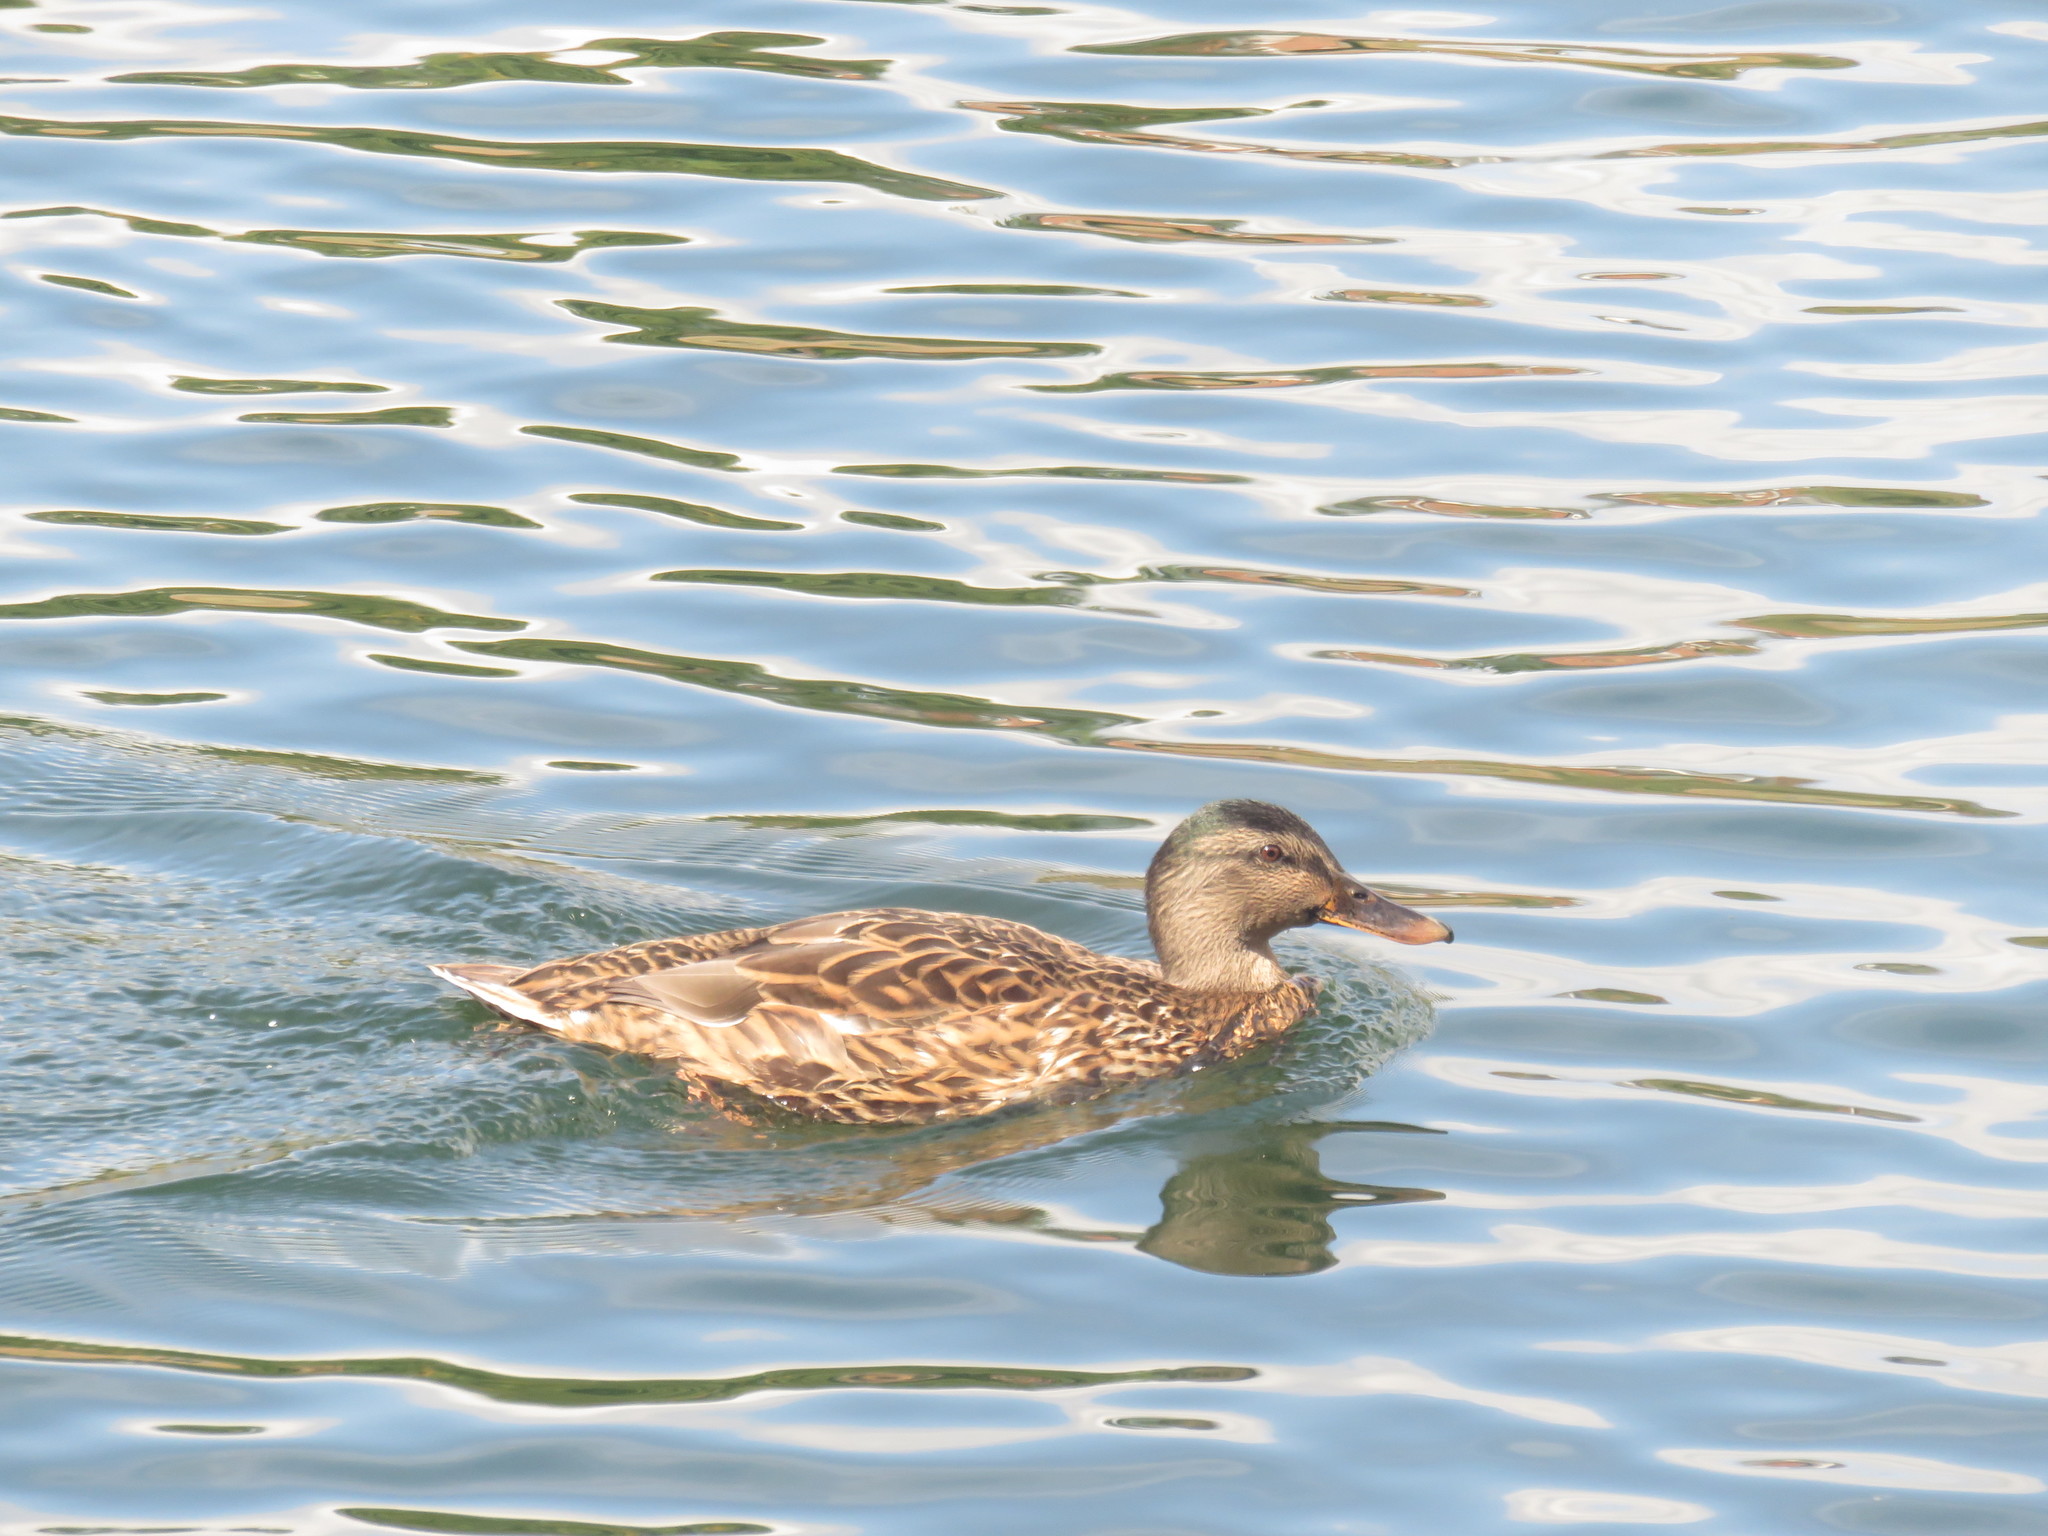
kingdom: Animalia
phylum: Chordata
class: Aves
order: Anseriformes
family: Anatidae
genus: Anas
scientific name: Anas platyrhynchos
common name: Mallard
